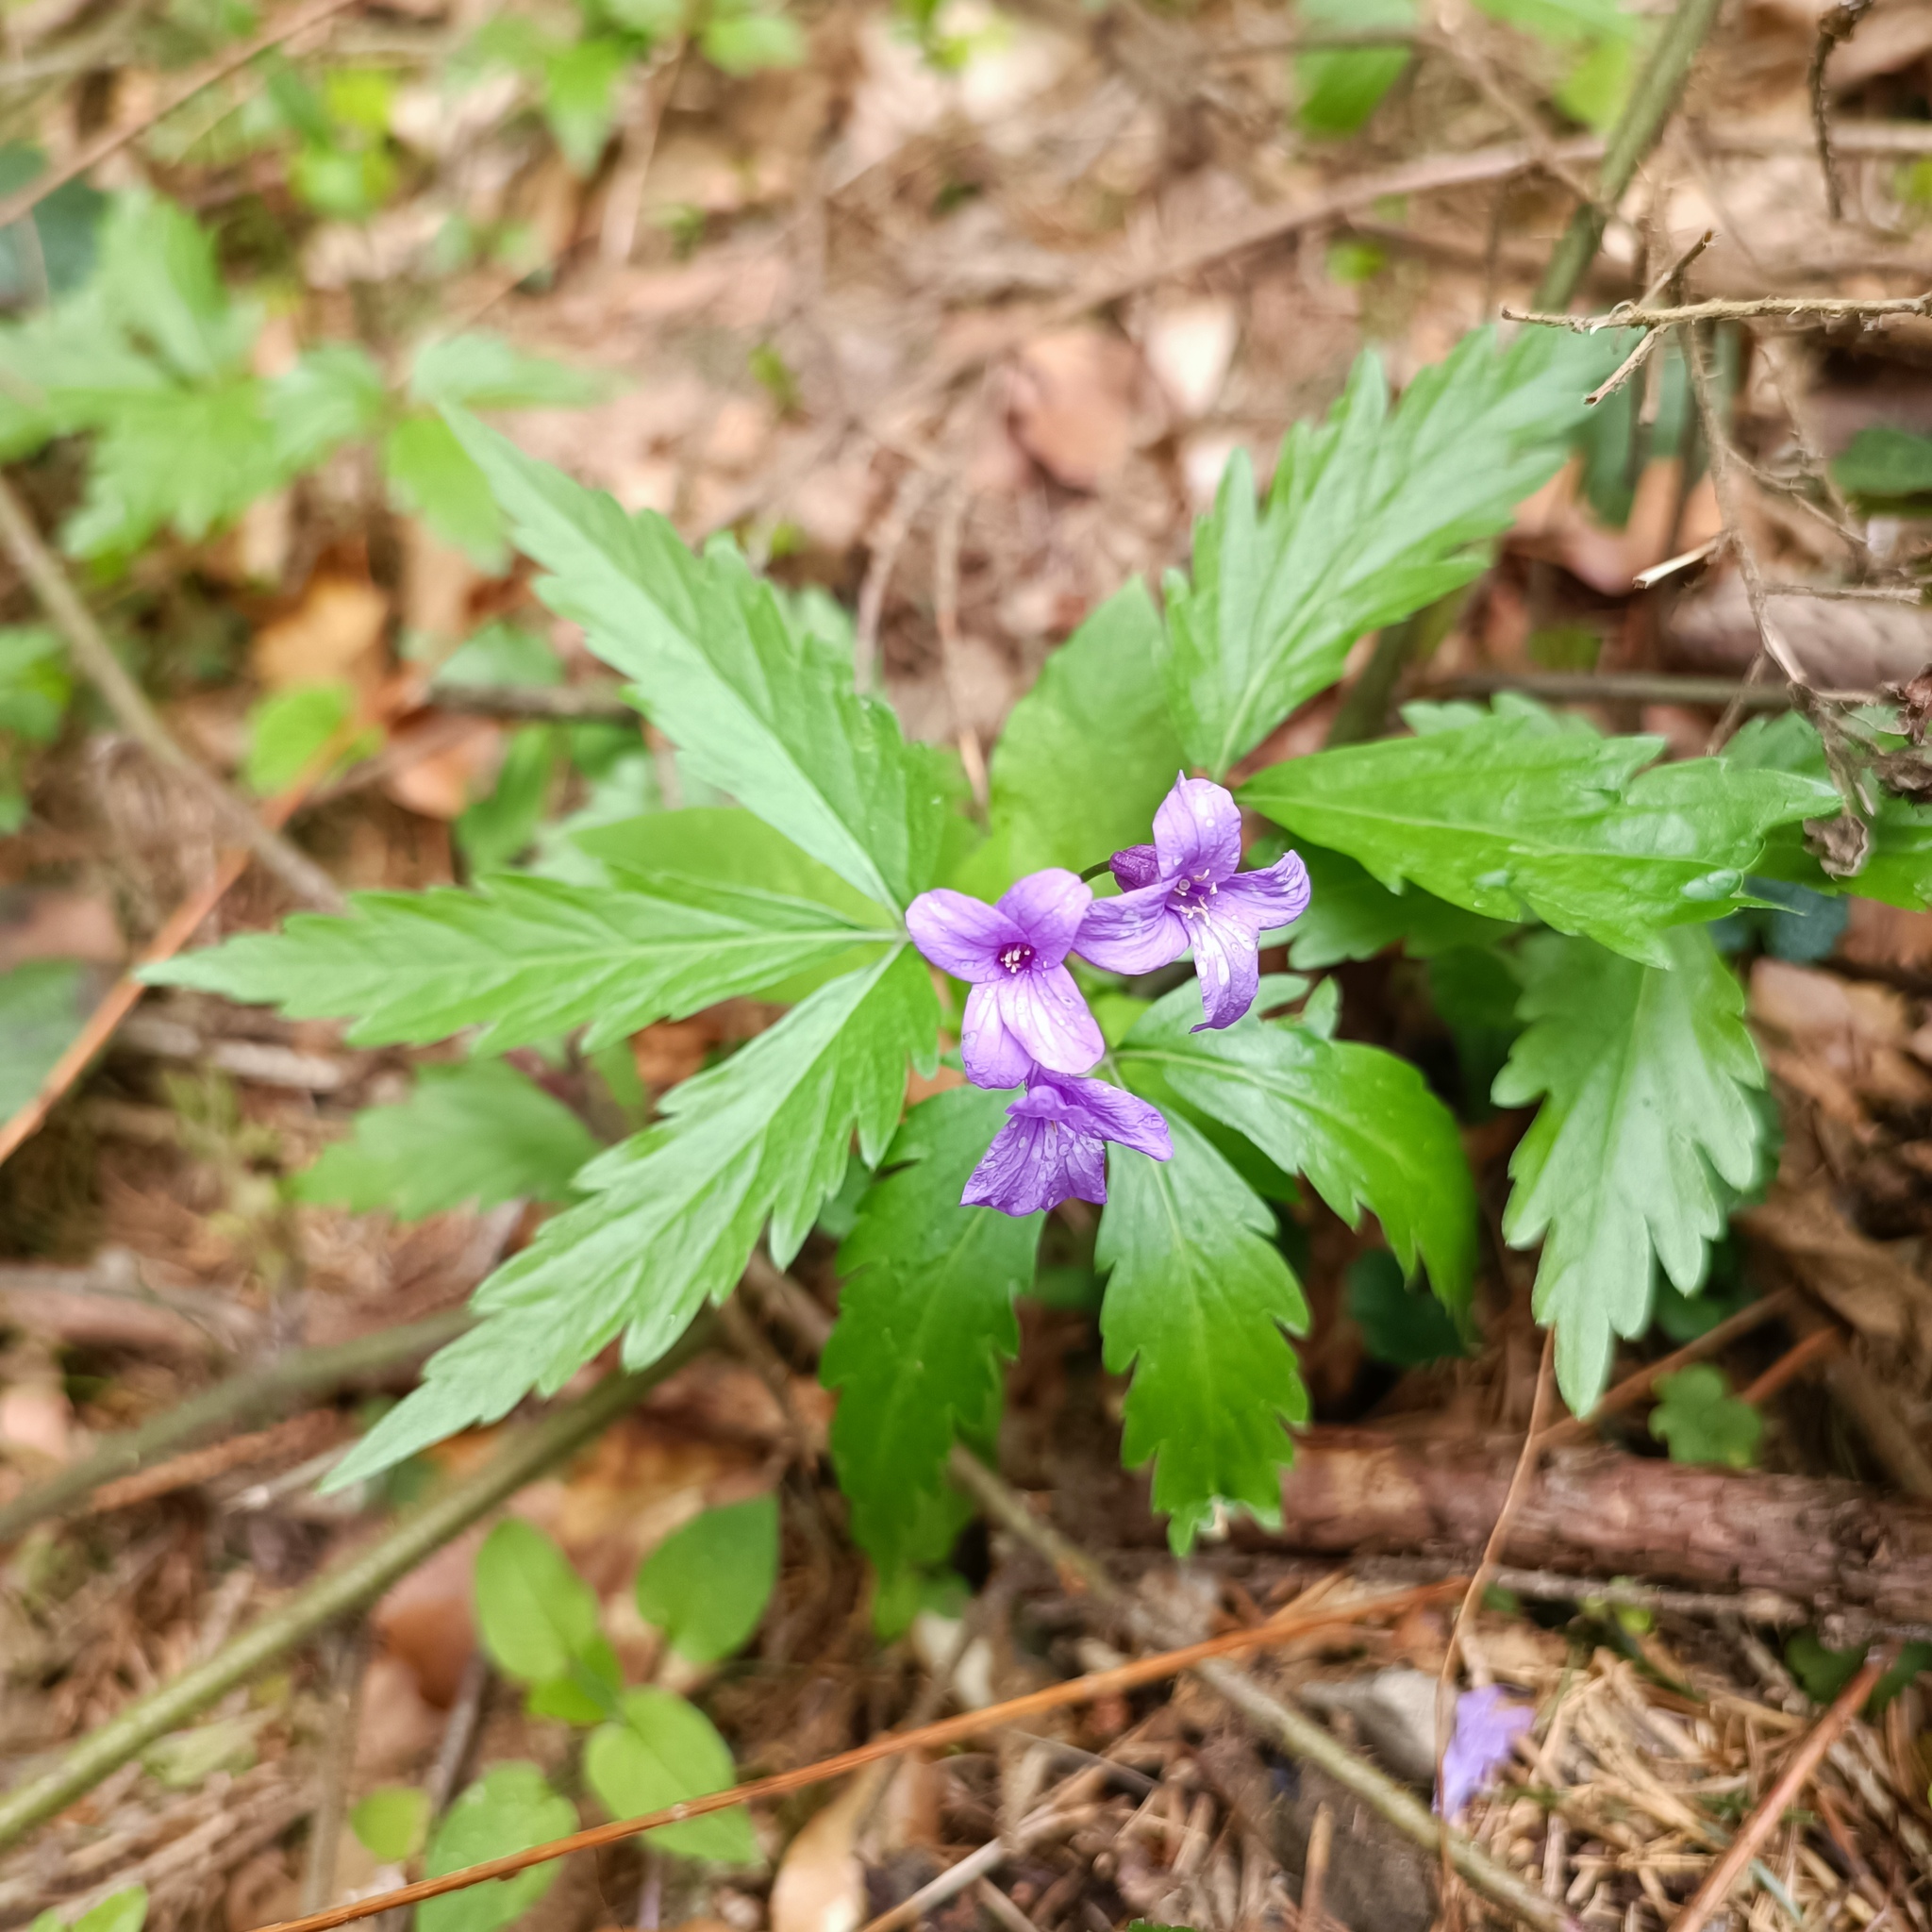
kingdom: Plantae
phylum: Tracheophyta
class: Magnoliopsida
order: Brassicales
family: Brassicaceae
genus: Cardamine
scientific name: Cardamine glanduligera
